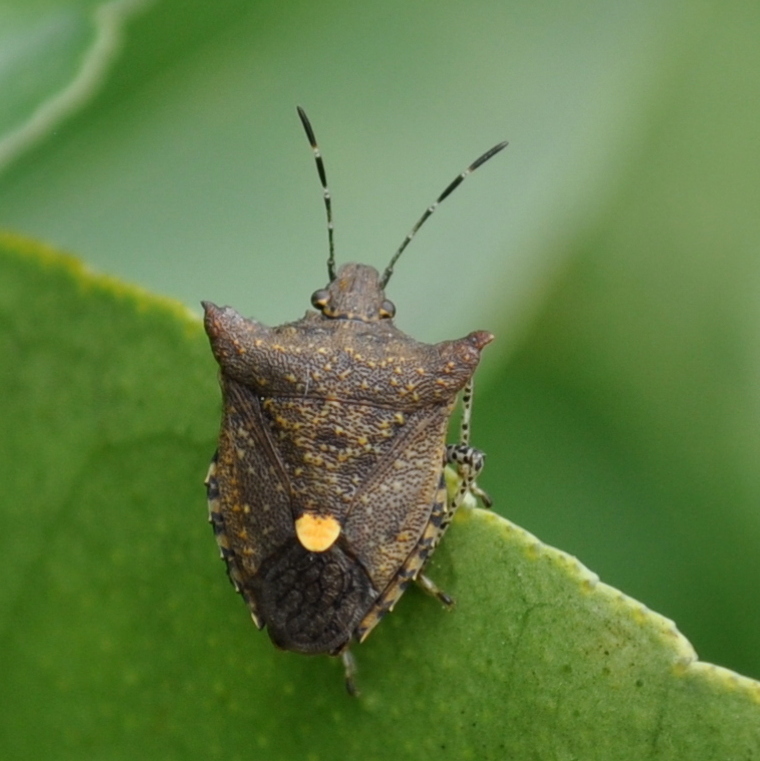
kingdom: Animalia
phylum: Arthropoda
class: Insecta
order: Hemiptera
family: Pentatomidae
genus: Euschistus
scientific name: Euschistus picticornis
